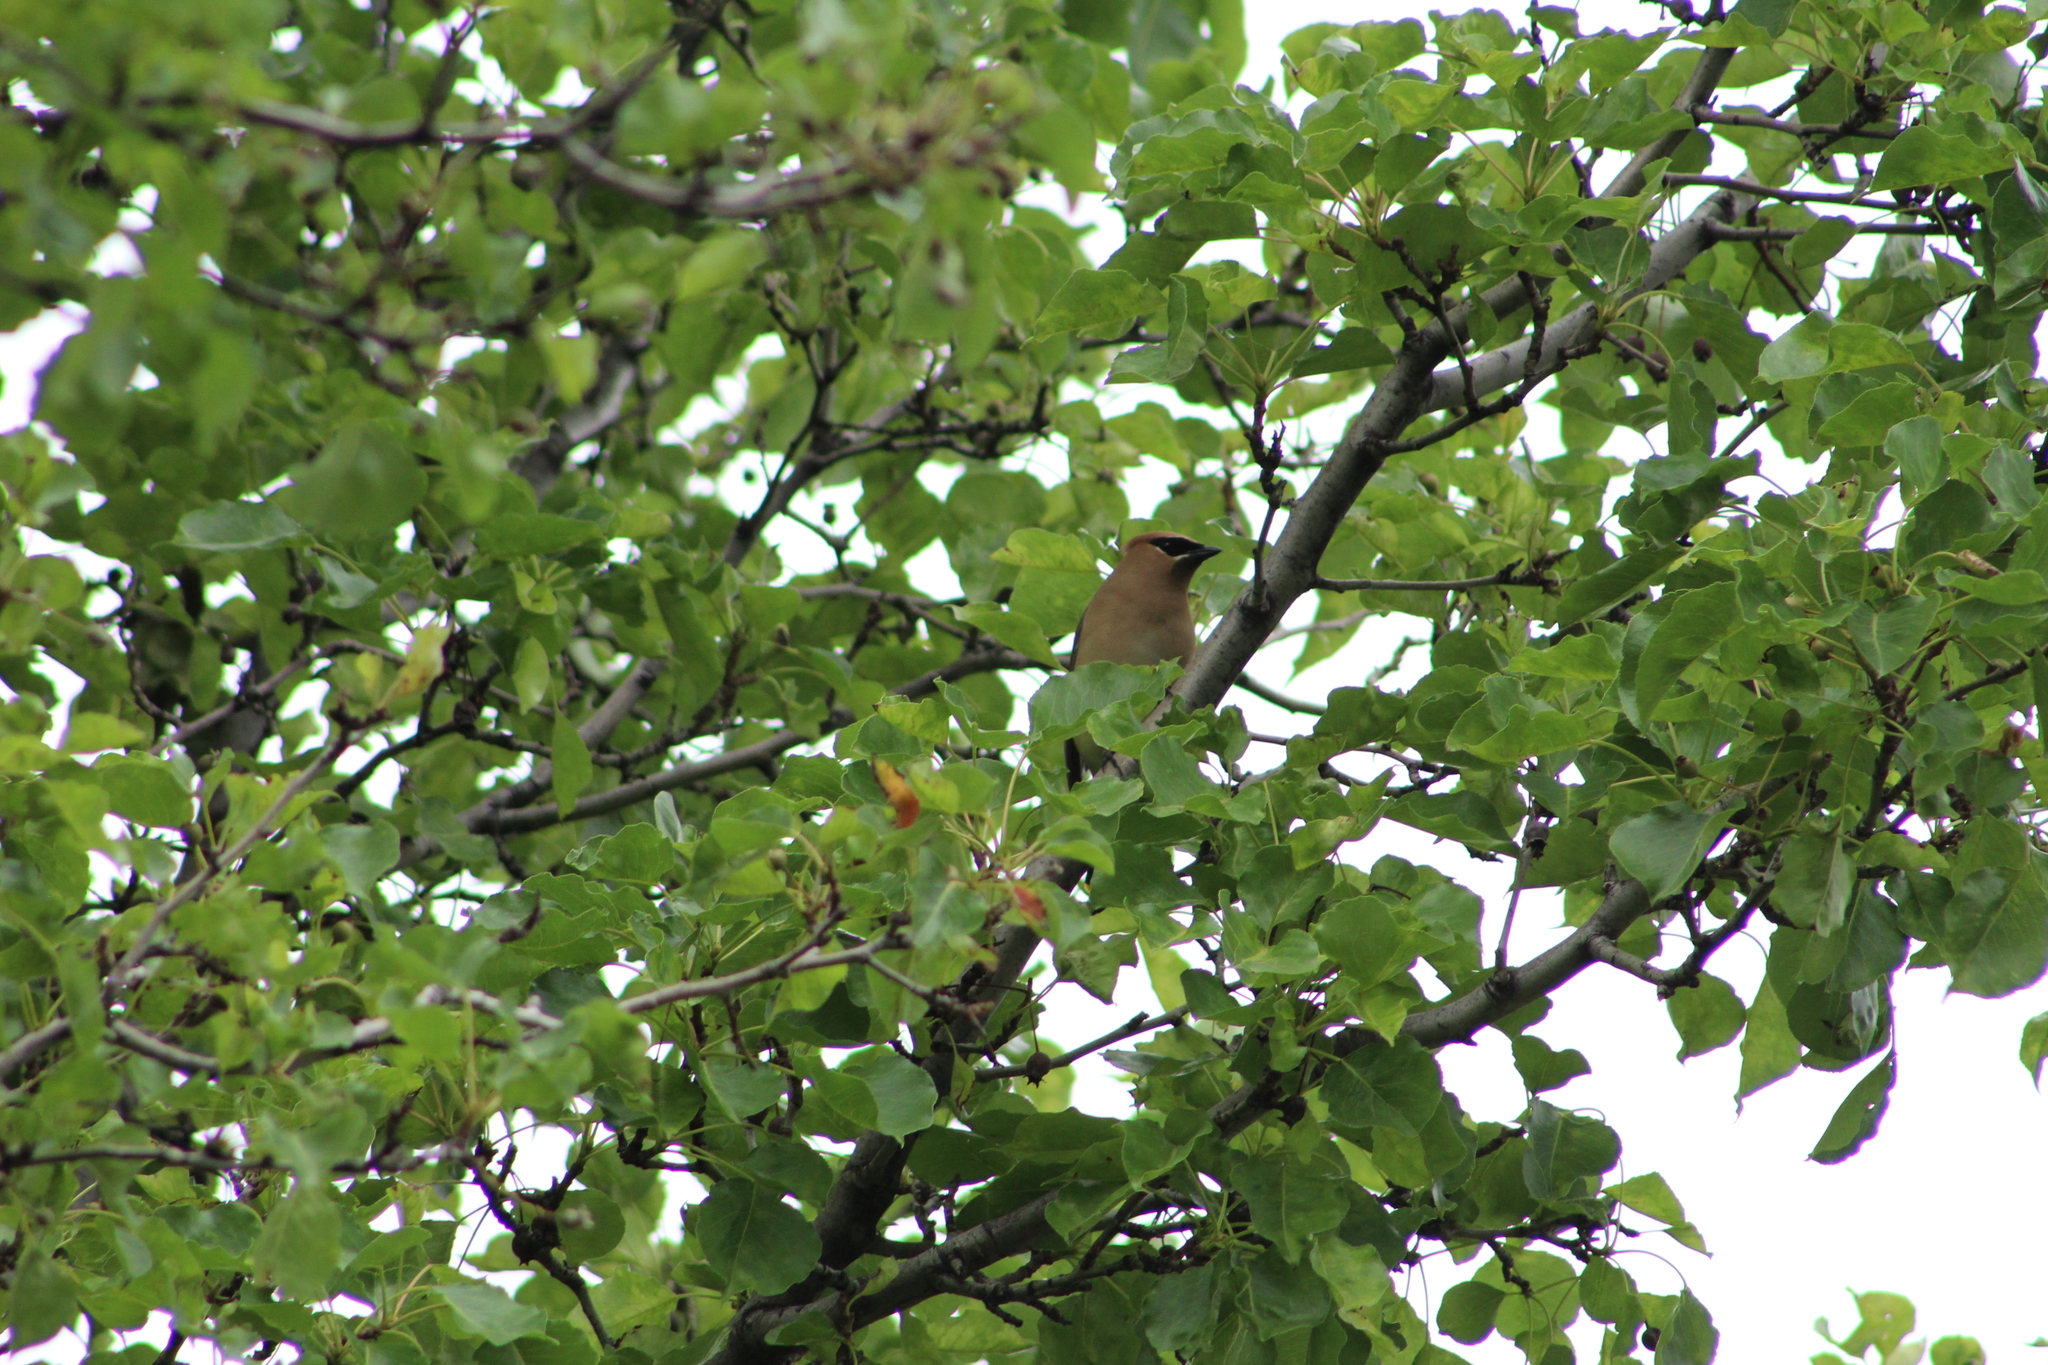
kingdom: Animalia
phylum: Chordata
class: Aves
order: Passeriformes
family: Bombycillidae
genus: Bombycilla
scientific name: Bombycilla cedrorum
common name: Cedar waxwing
